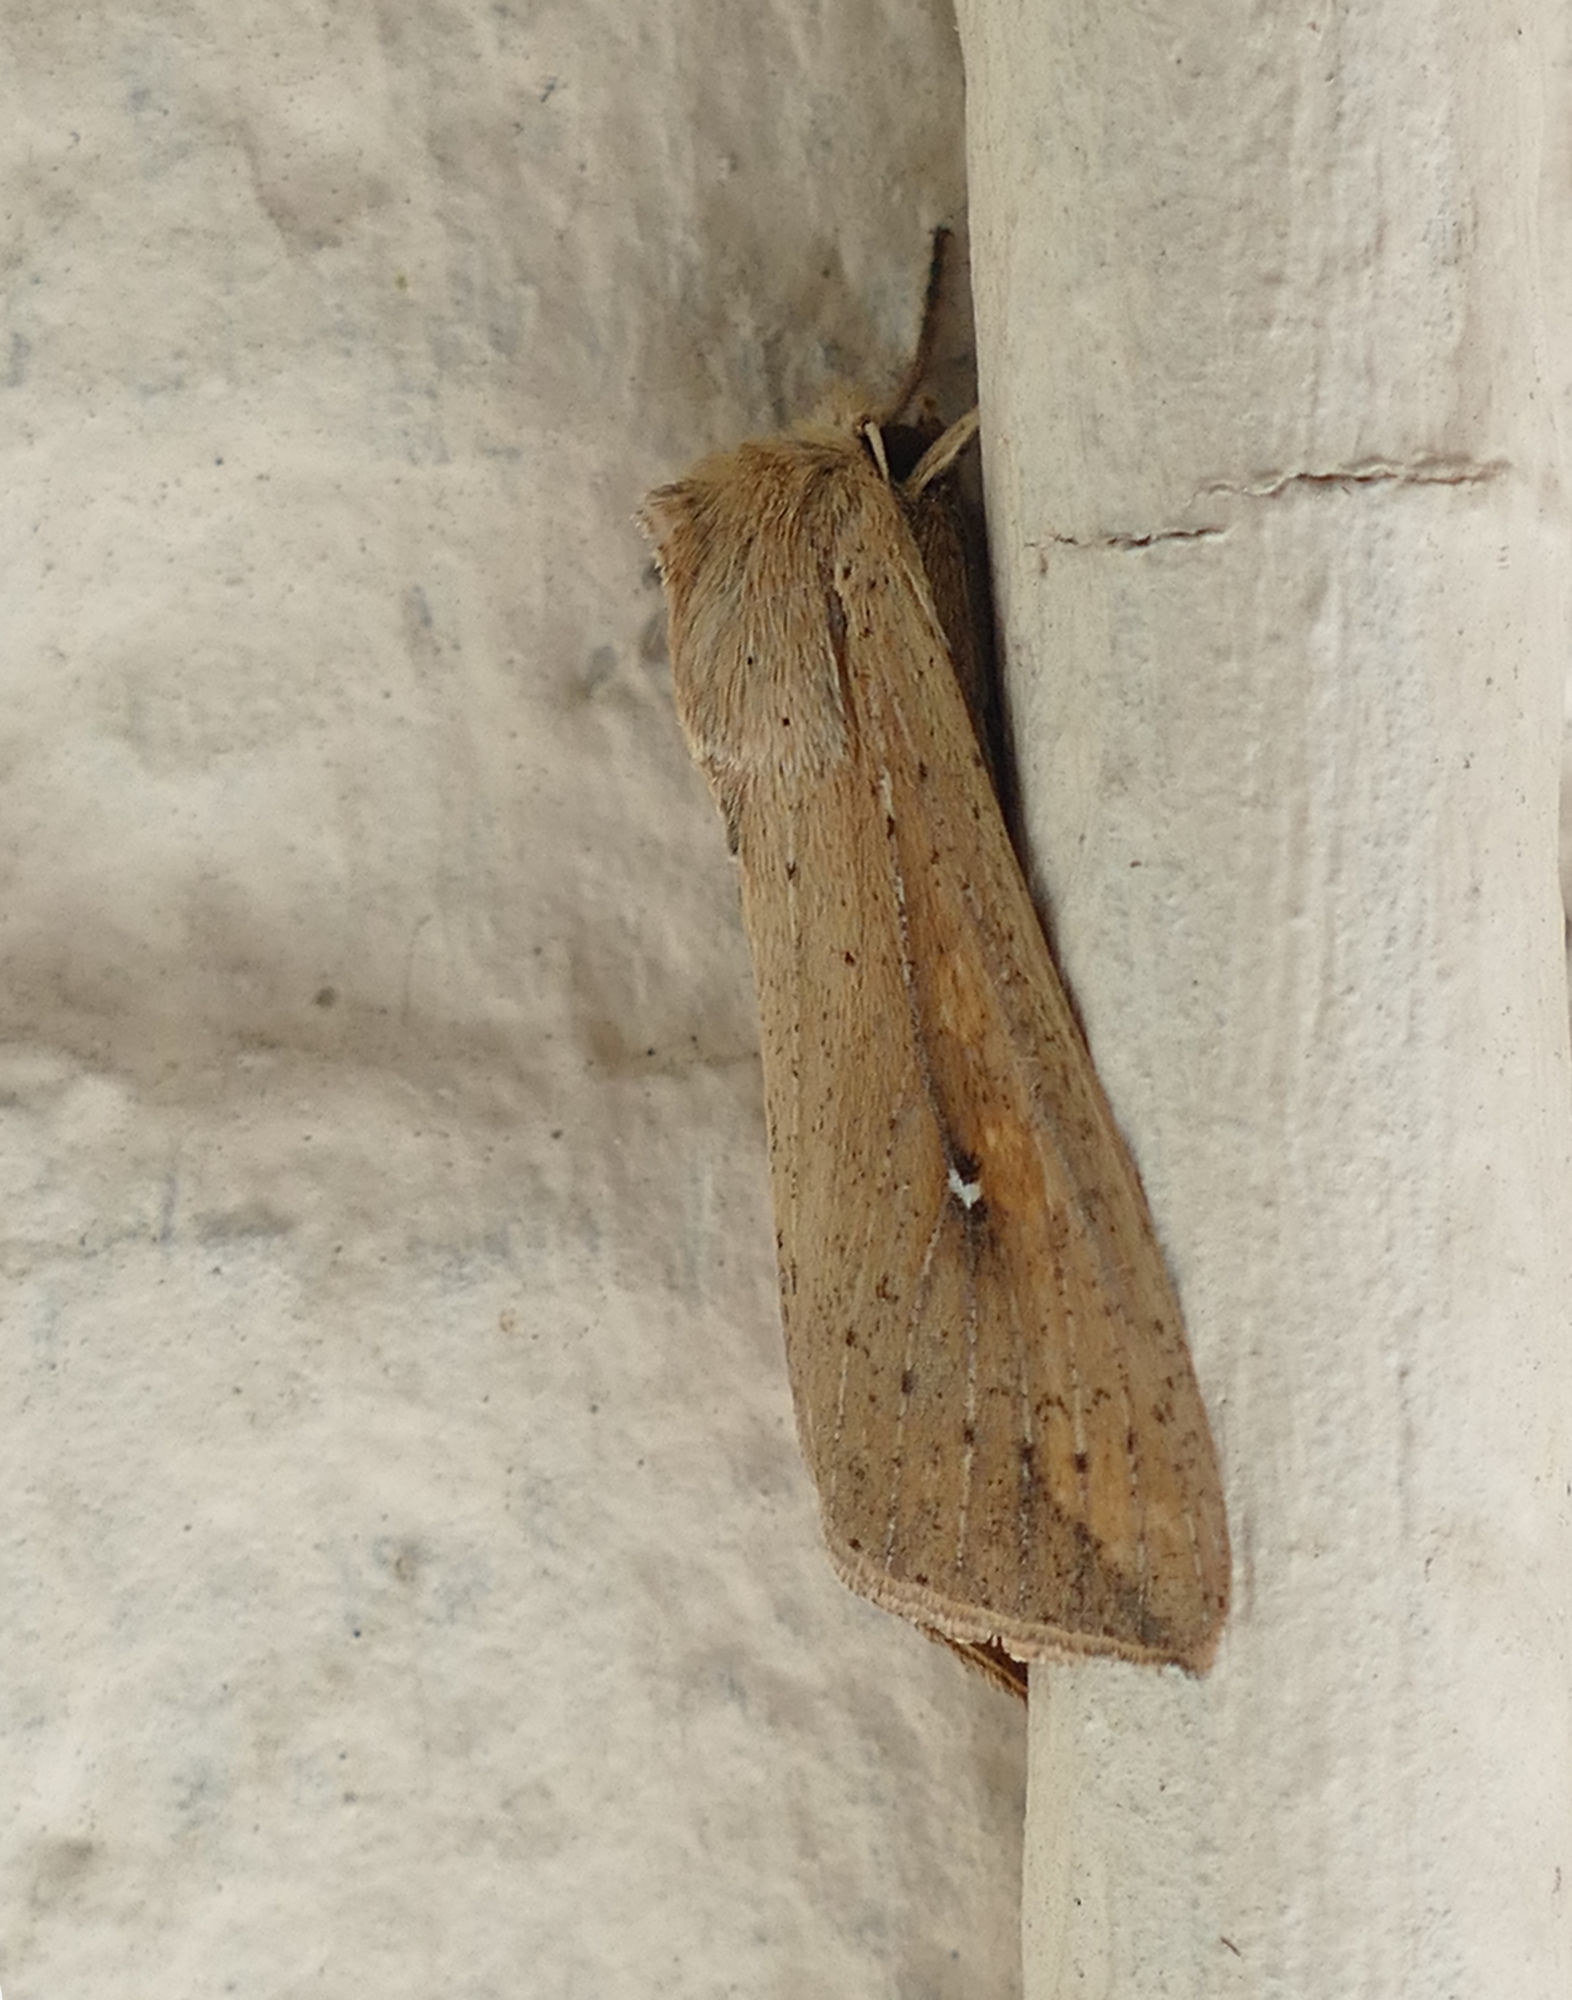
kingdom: Animalia
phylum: Arthropoda
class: Insecta
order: Lepidoptera
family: Noctuidae
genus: Mythimna
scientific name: Mythimna unipuncta
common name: White-speck
